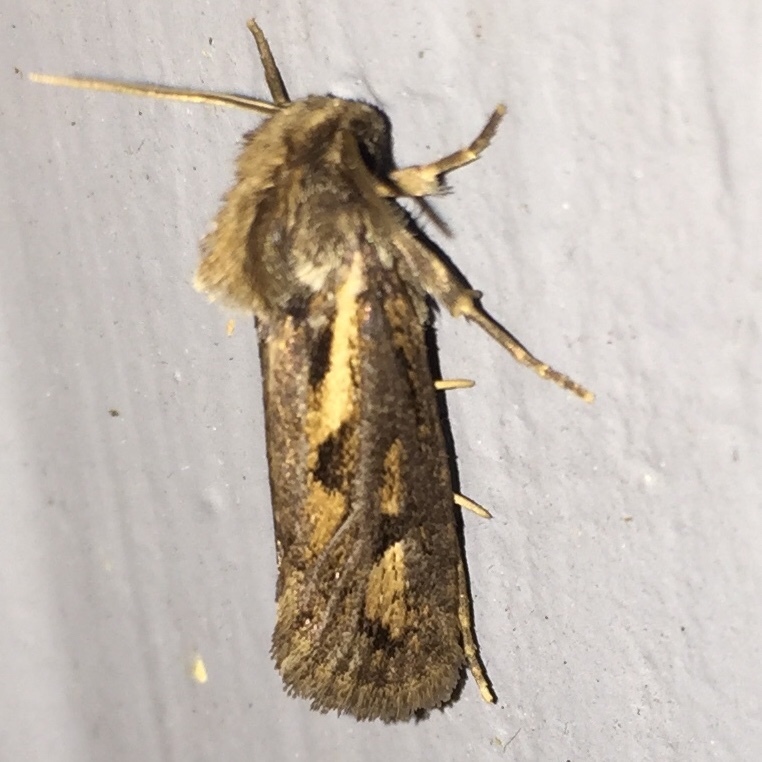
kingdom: Animalia
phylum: Arthropoda
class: Insecta
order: Lepidoptera
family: Tineidae
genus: Acrolophus
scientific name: Acrolophus popeanella
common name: Clemens' grass tubeworm moth
